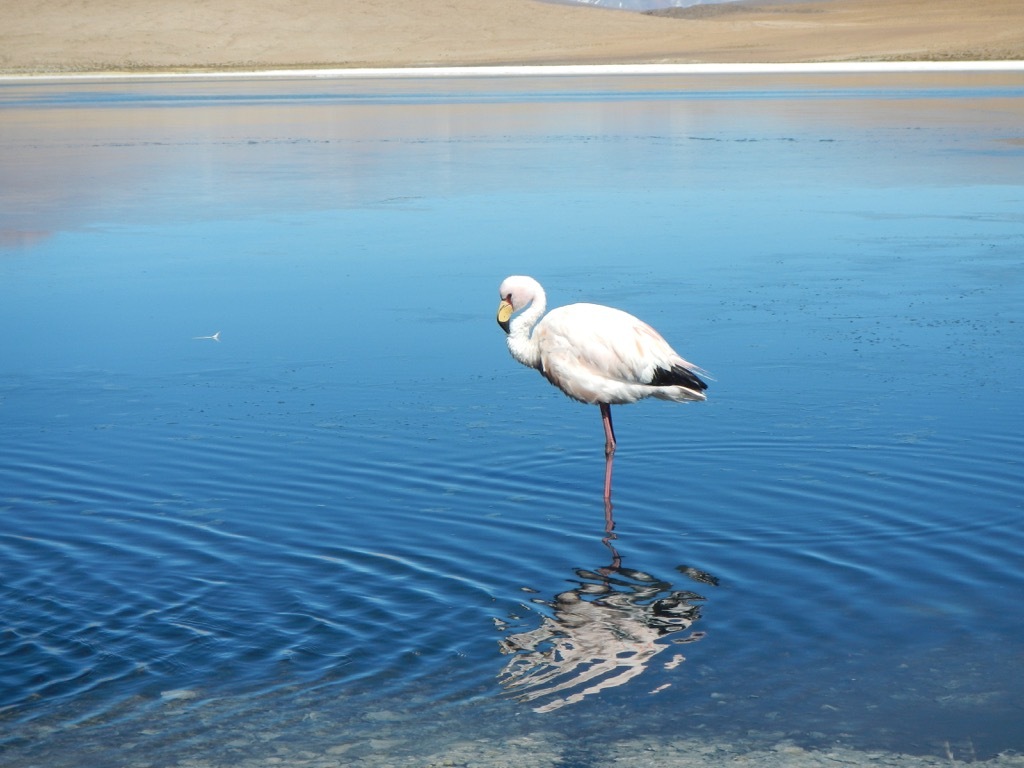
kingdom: Animalia
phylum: Chordata
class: Aves
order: Phoenicopteriformes
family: Phoenicopteridae
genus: Phoenicoparrus
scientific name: Phoenicoparrus jamesi
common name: James's flamingo
